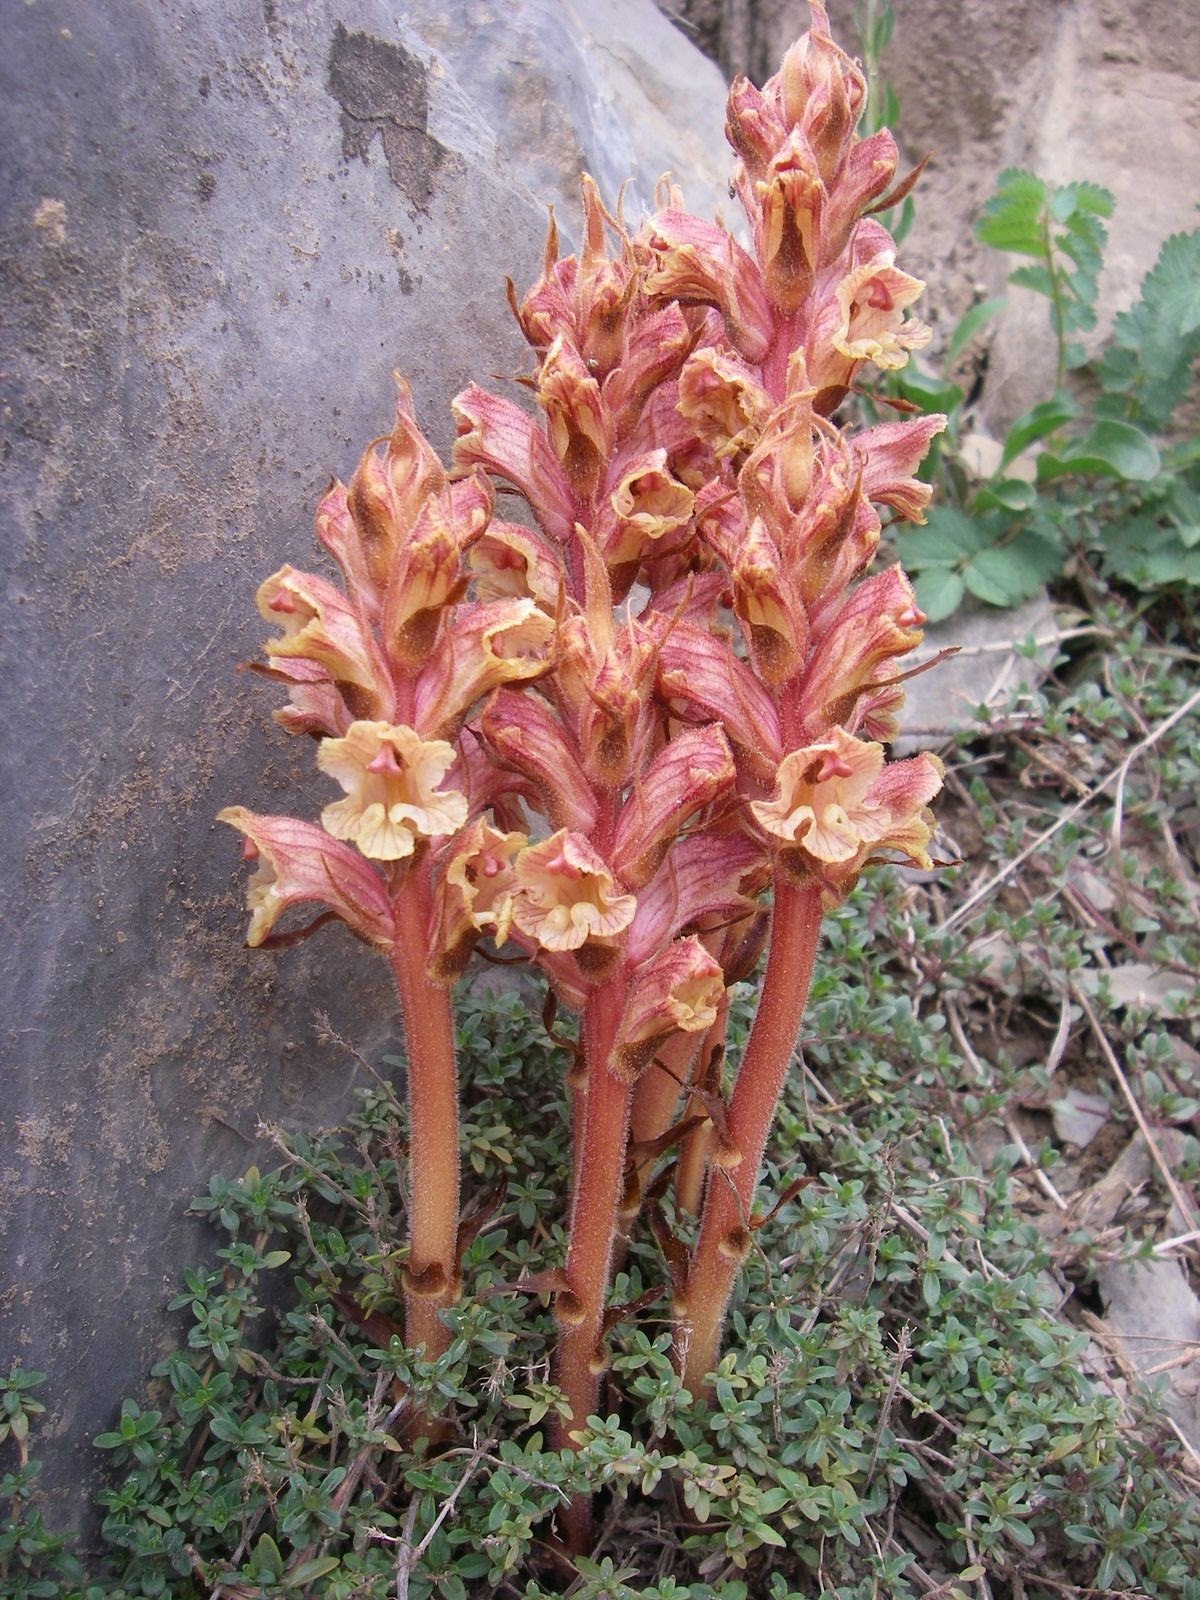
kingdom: Plantae
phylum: Tracheophyta
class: Magnoliopsida
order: Lamiales
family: Orobanchaceae
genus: Orobanche
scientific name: Orobanche alba
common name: Thyme broomrape
